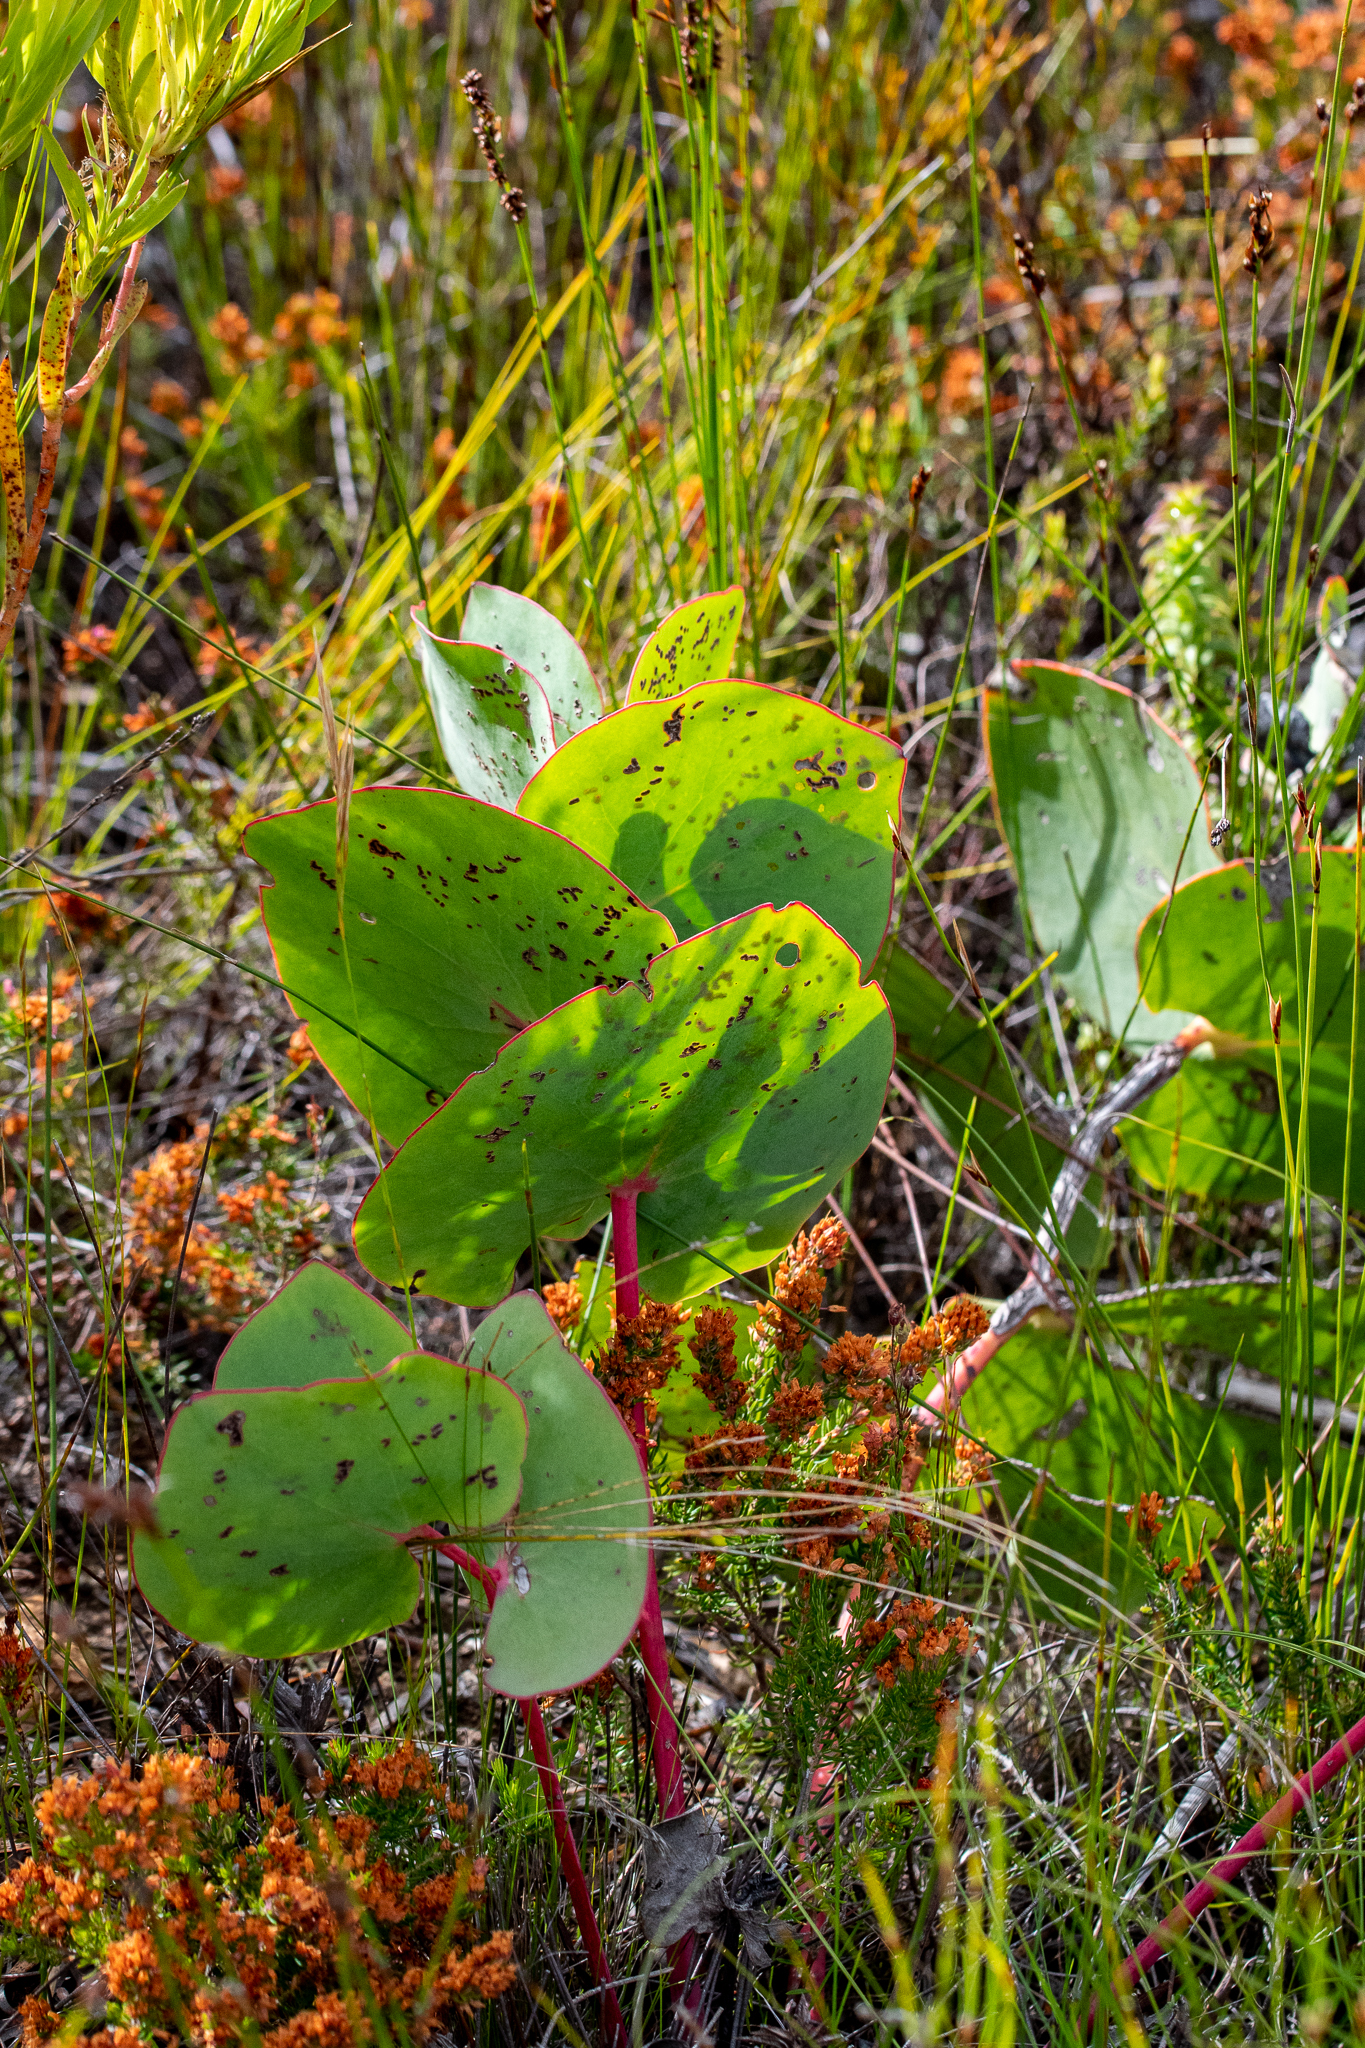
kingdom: Plantae
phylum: Tracheophyta
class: Magnoliopsida
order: Proteales
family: Proteaceae
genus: Protea
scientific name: Protea cordata
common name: Heart-leaf sugarbush
